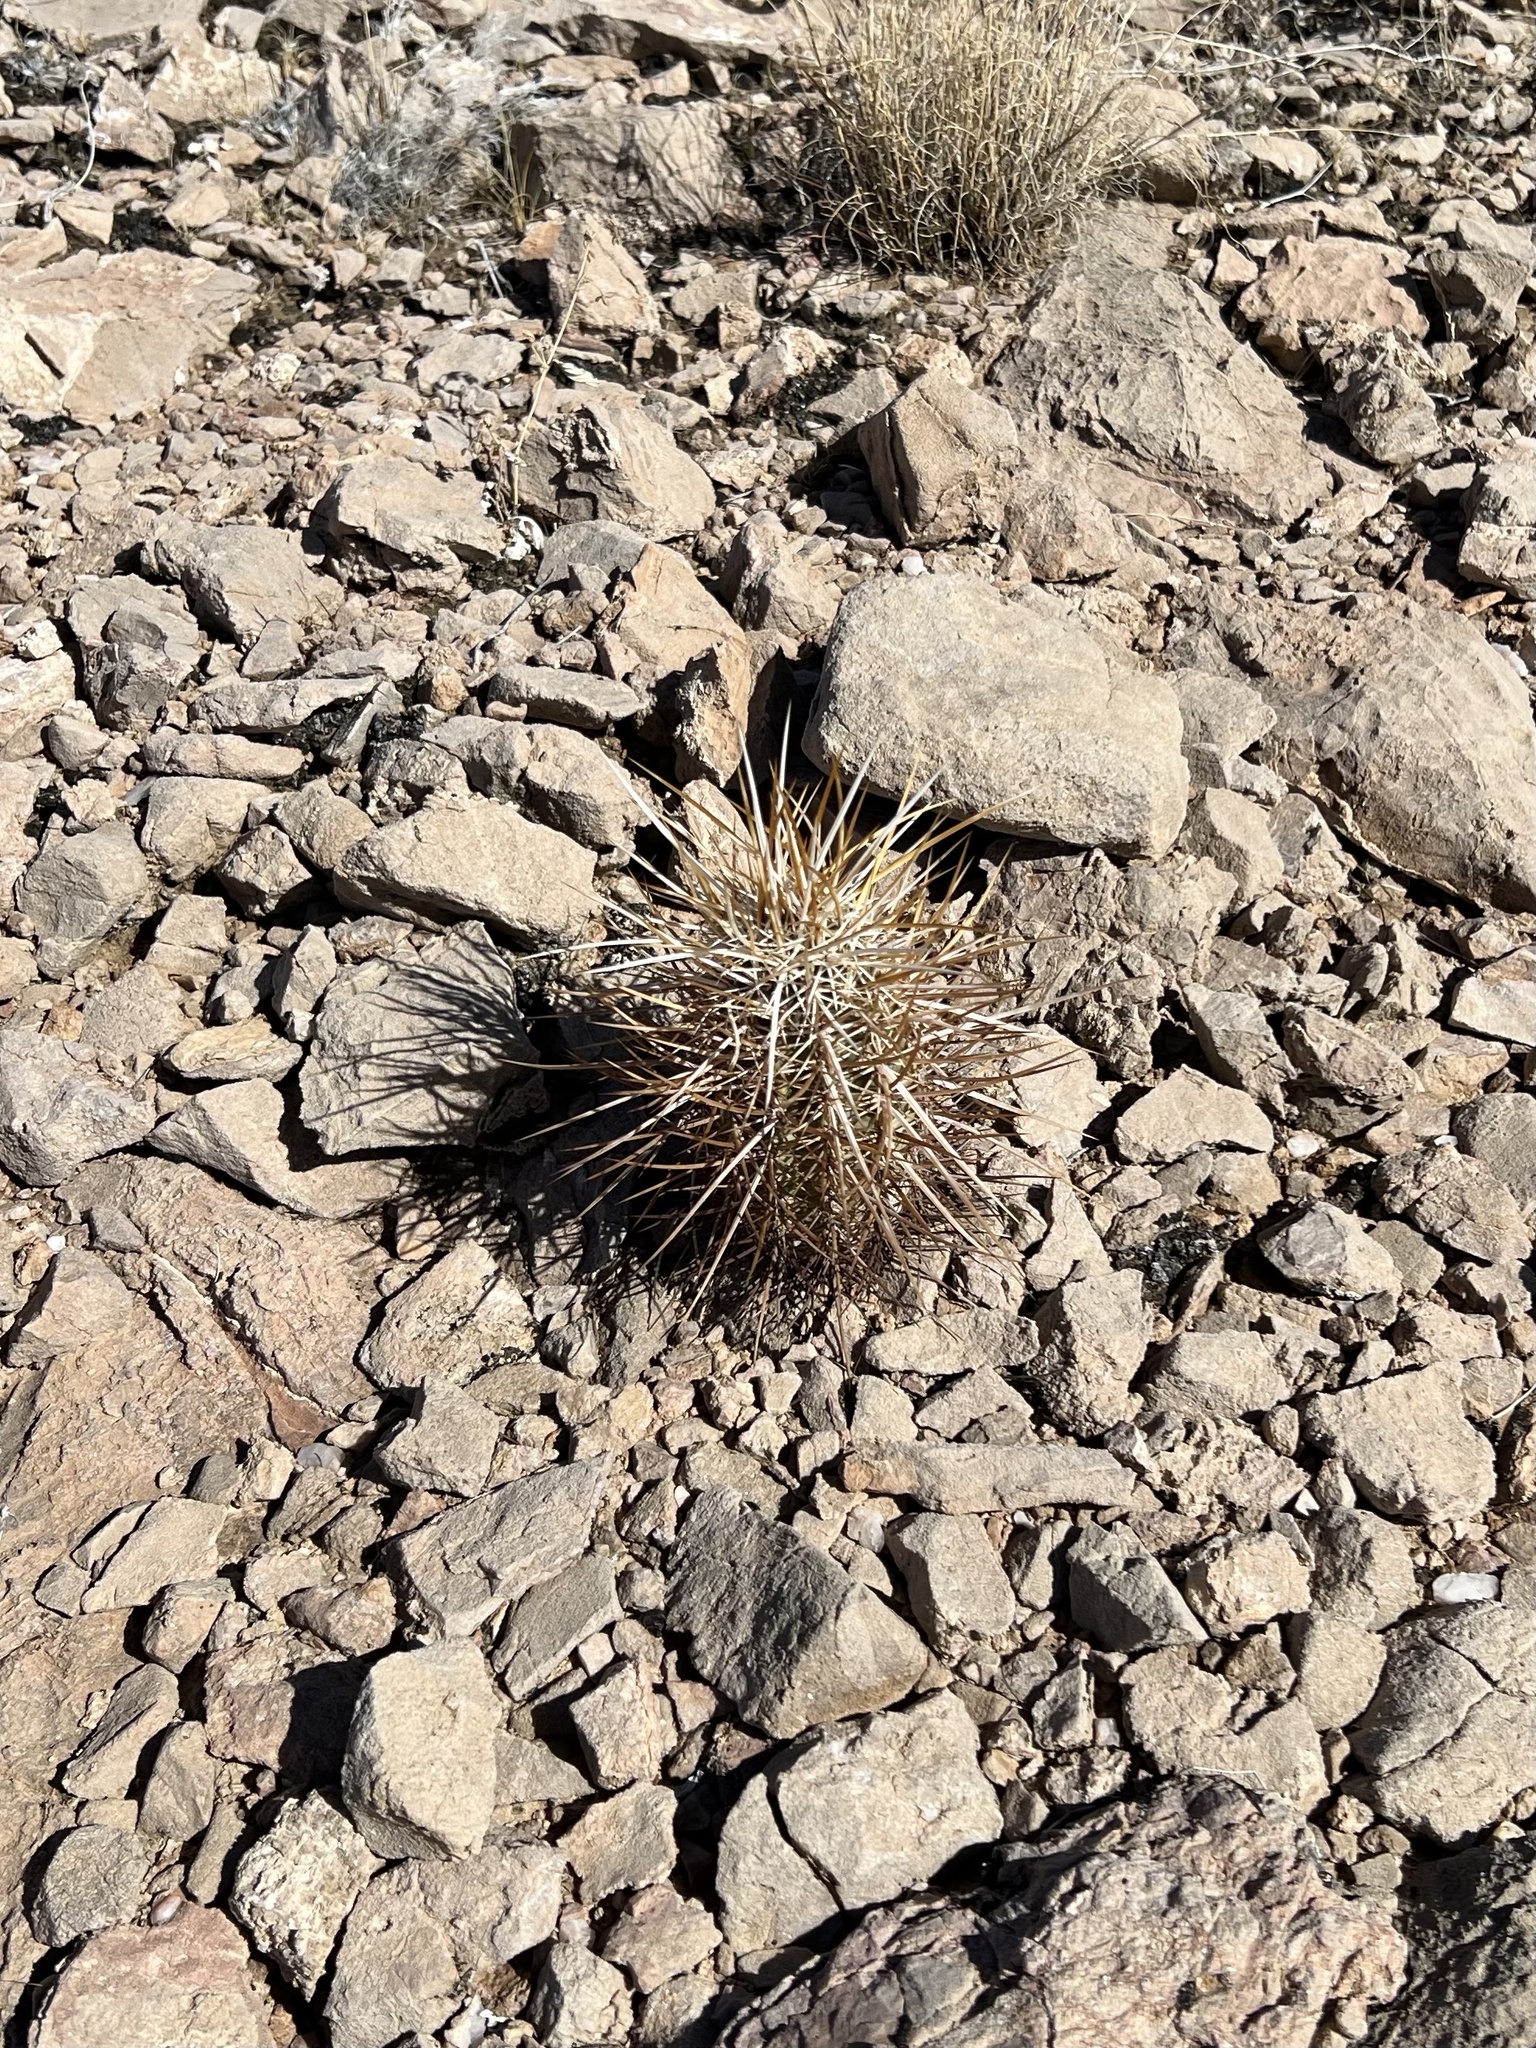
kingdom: Plantae
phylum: Tracheophyta
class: Magnoliopsida
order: Caryophyllales
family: Cactaceae
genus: Echinocereus
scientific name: Echinocereus engelmannii
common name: Engelmann's hedgehog cactus
